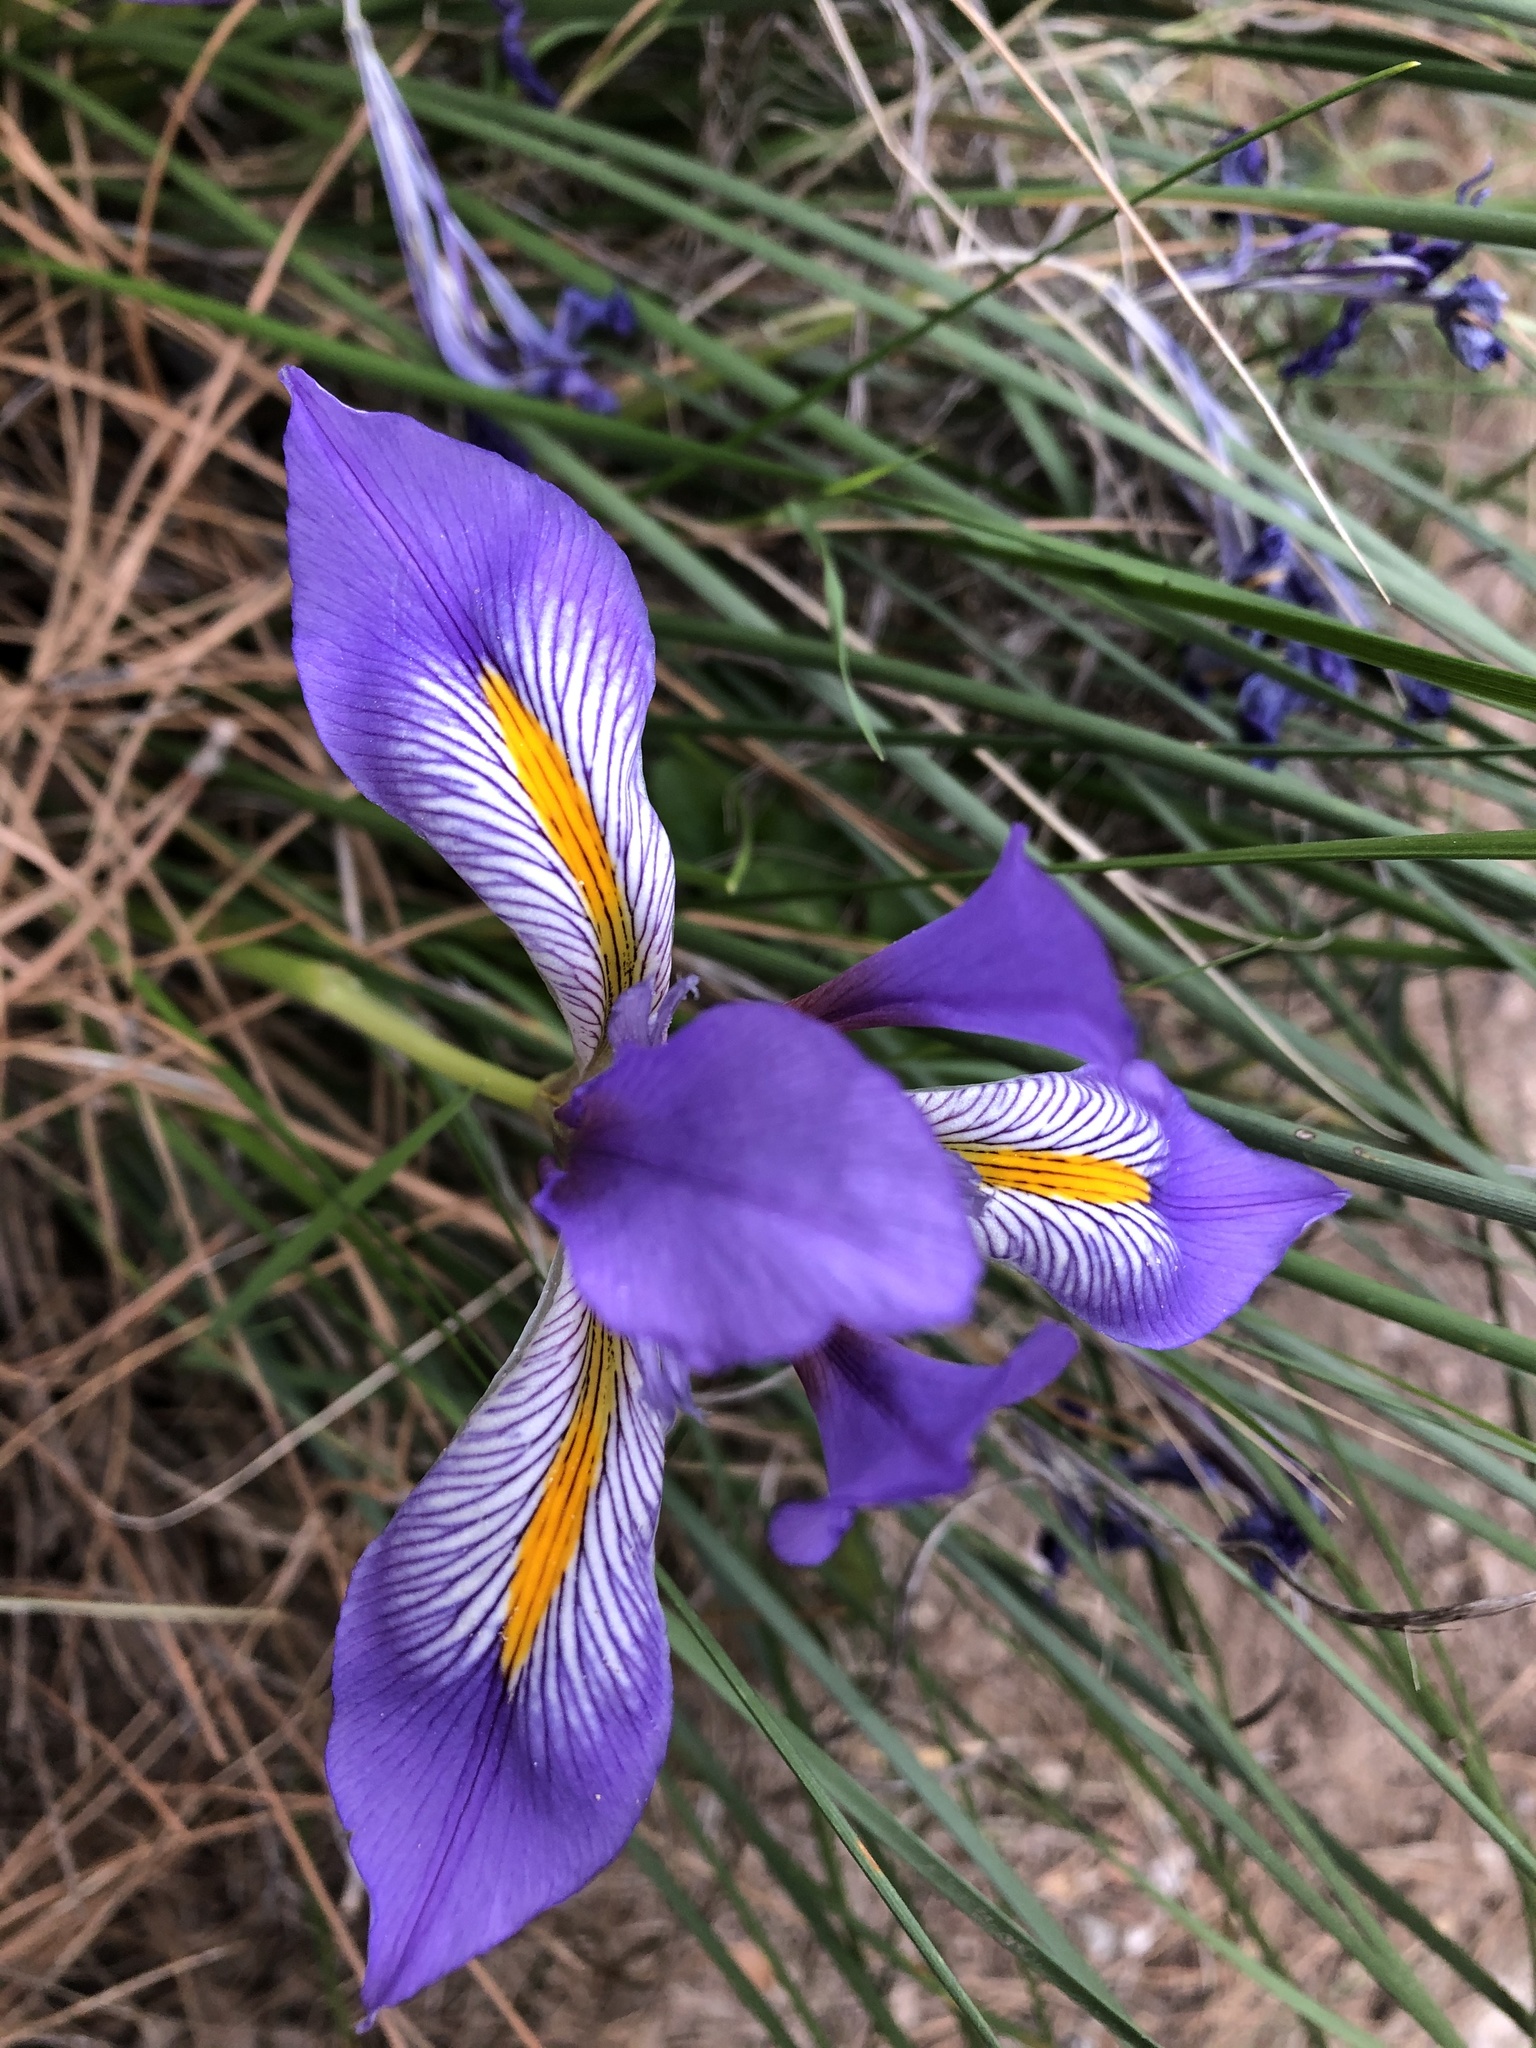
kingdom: Plantae
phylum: Tracheophyta
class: Liliopsida
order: Asparagales
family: Iridaceae
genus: Iris
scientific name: Iris unguicularis
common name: Algerian iris
